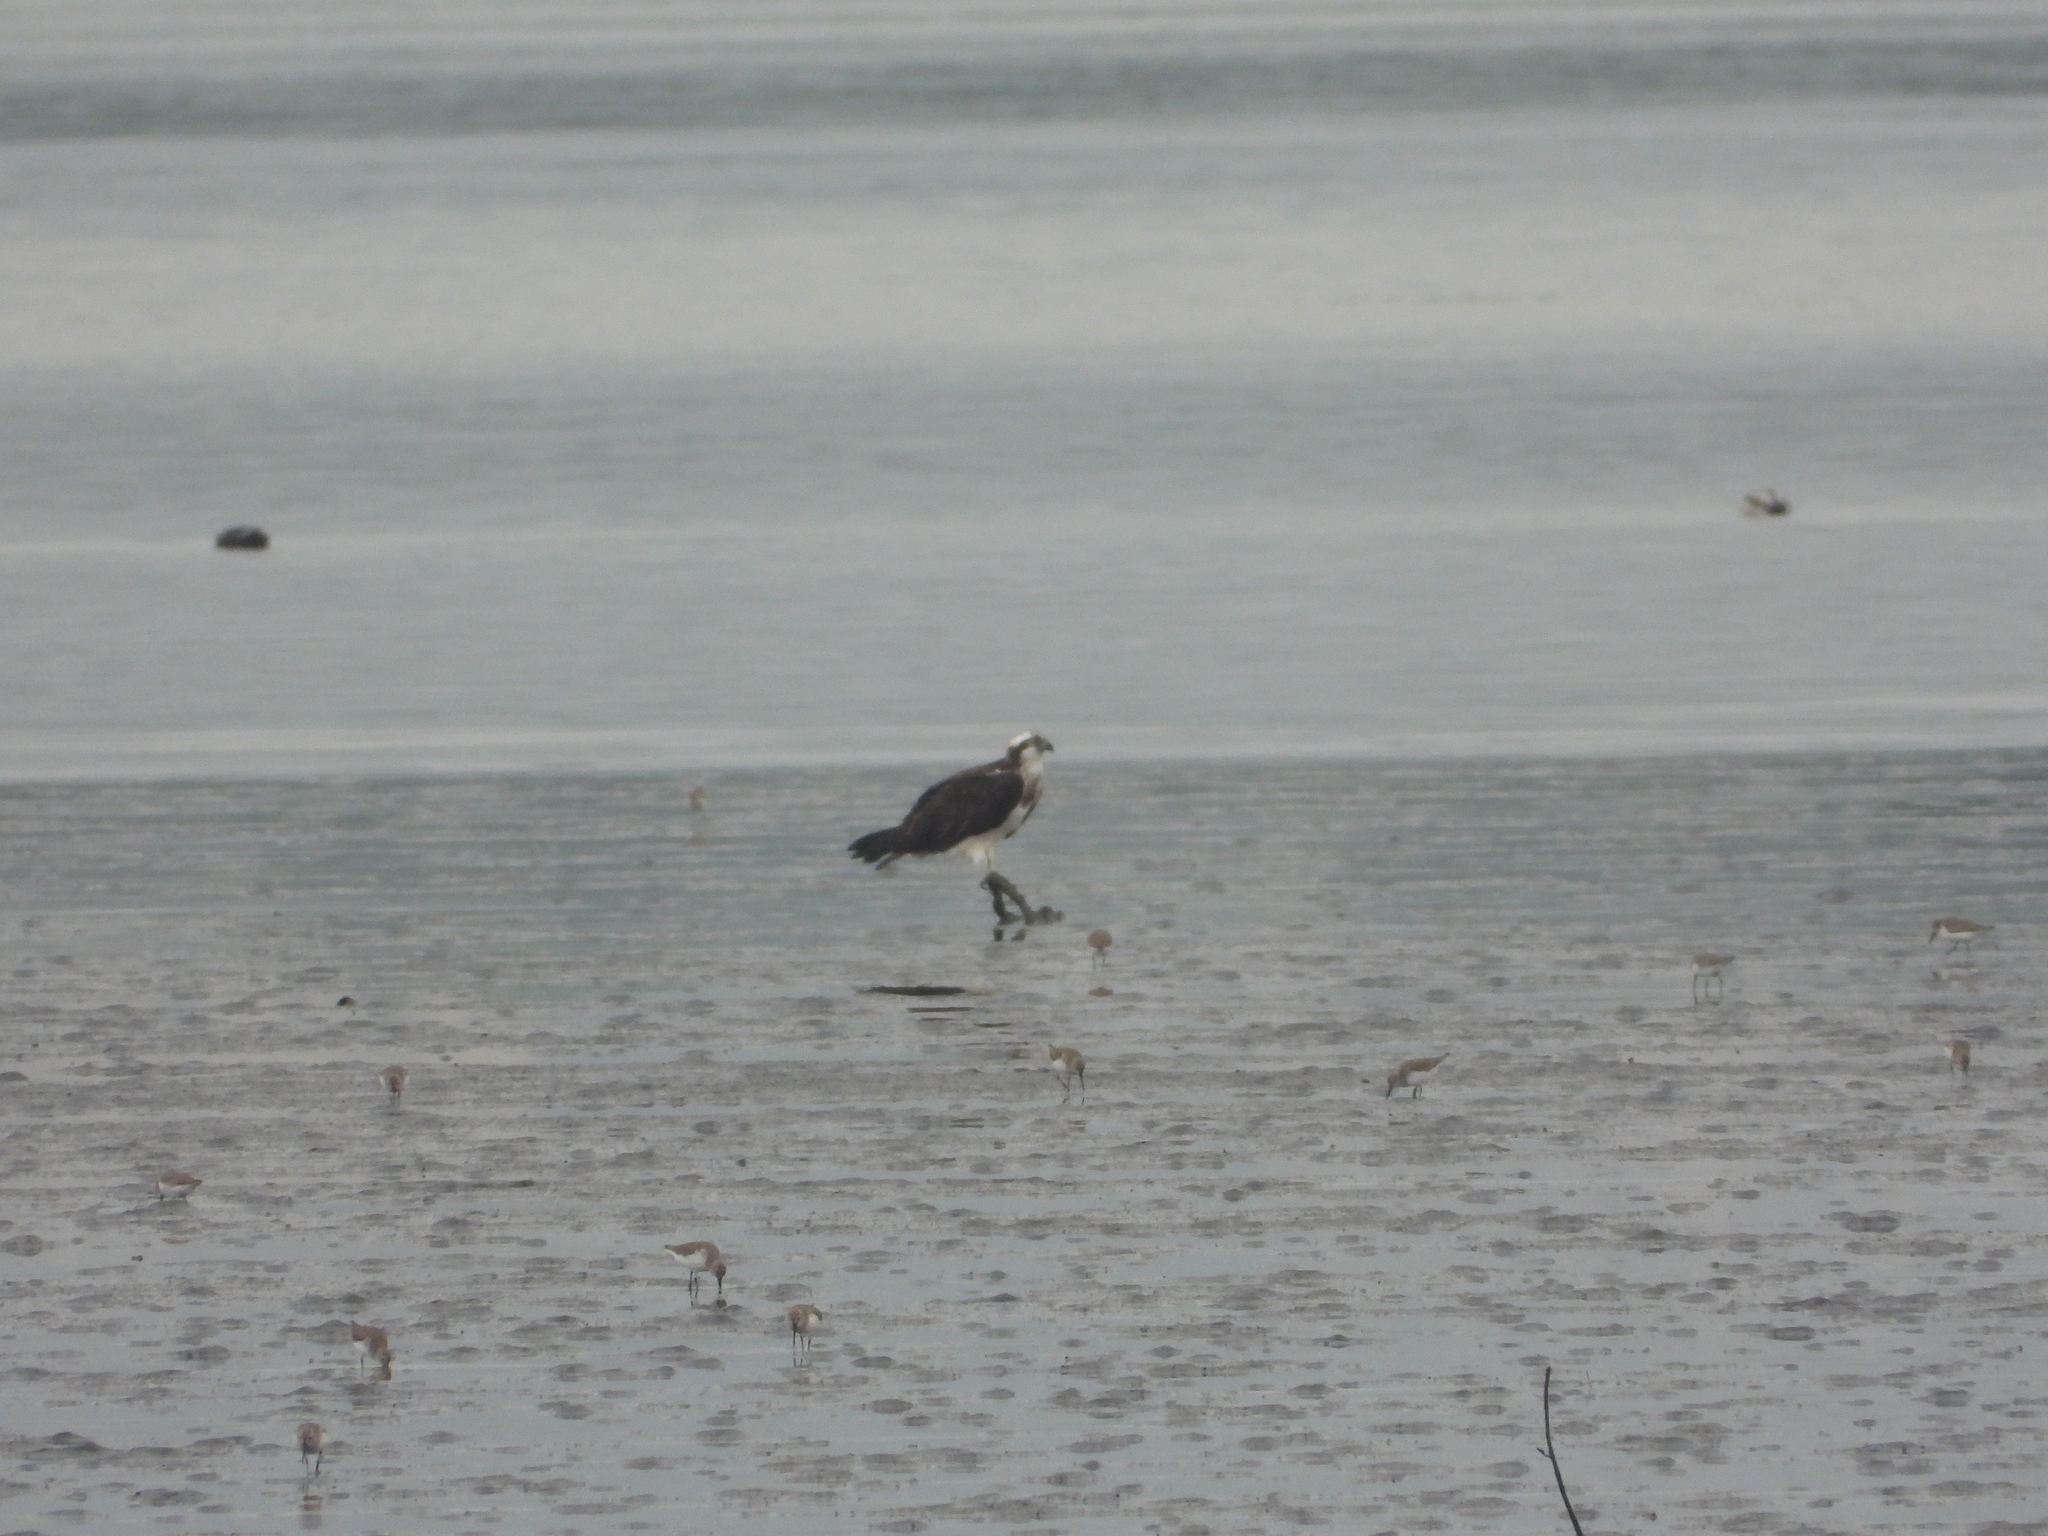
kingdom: Animalia
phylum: Chordata
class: Aves
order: Accipitriformes
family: Pandionidae
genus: Pandion
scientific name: Pandion haliaetus
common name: Osprey
